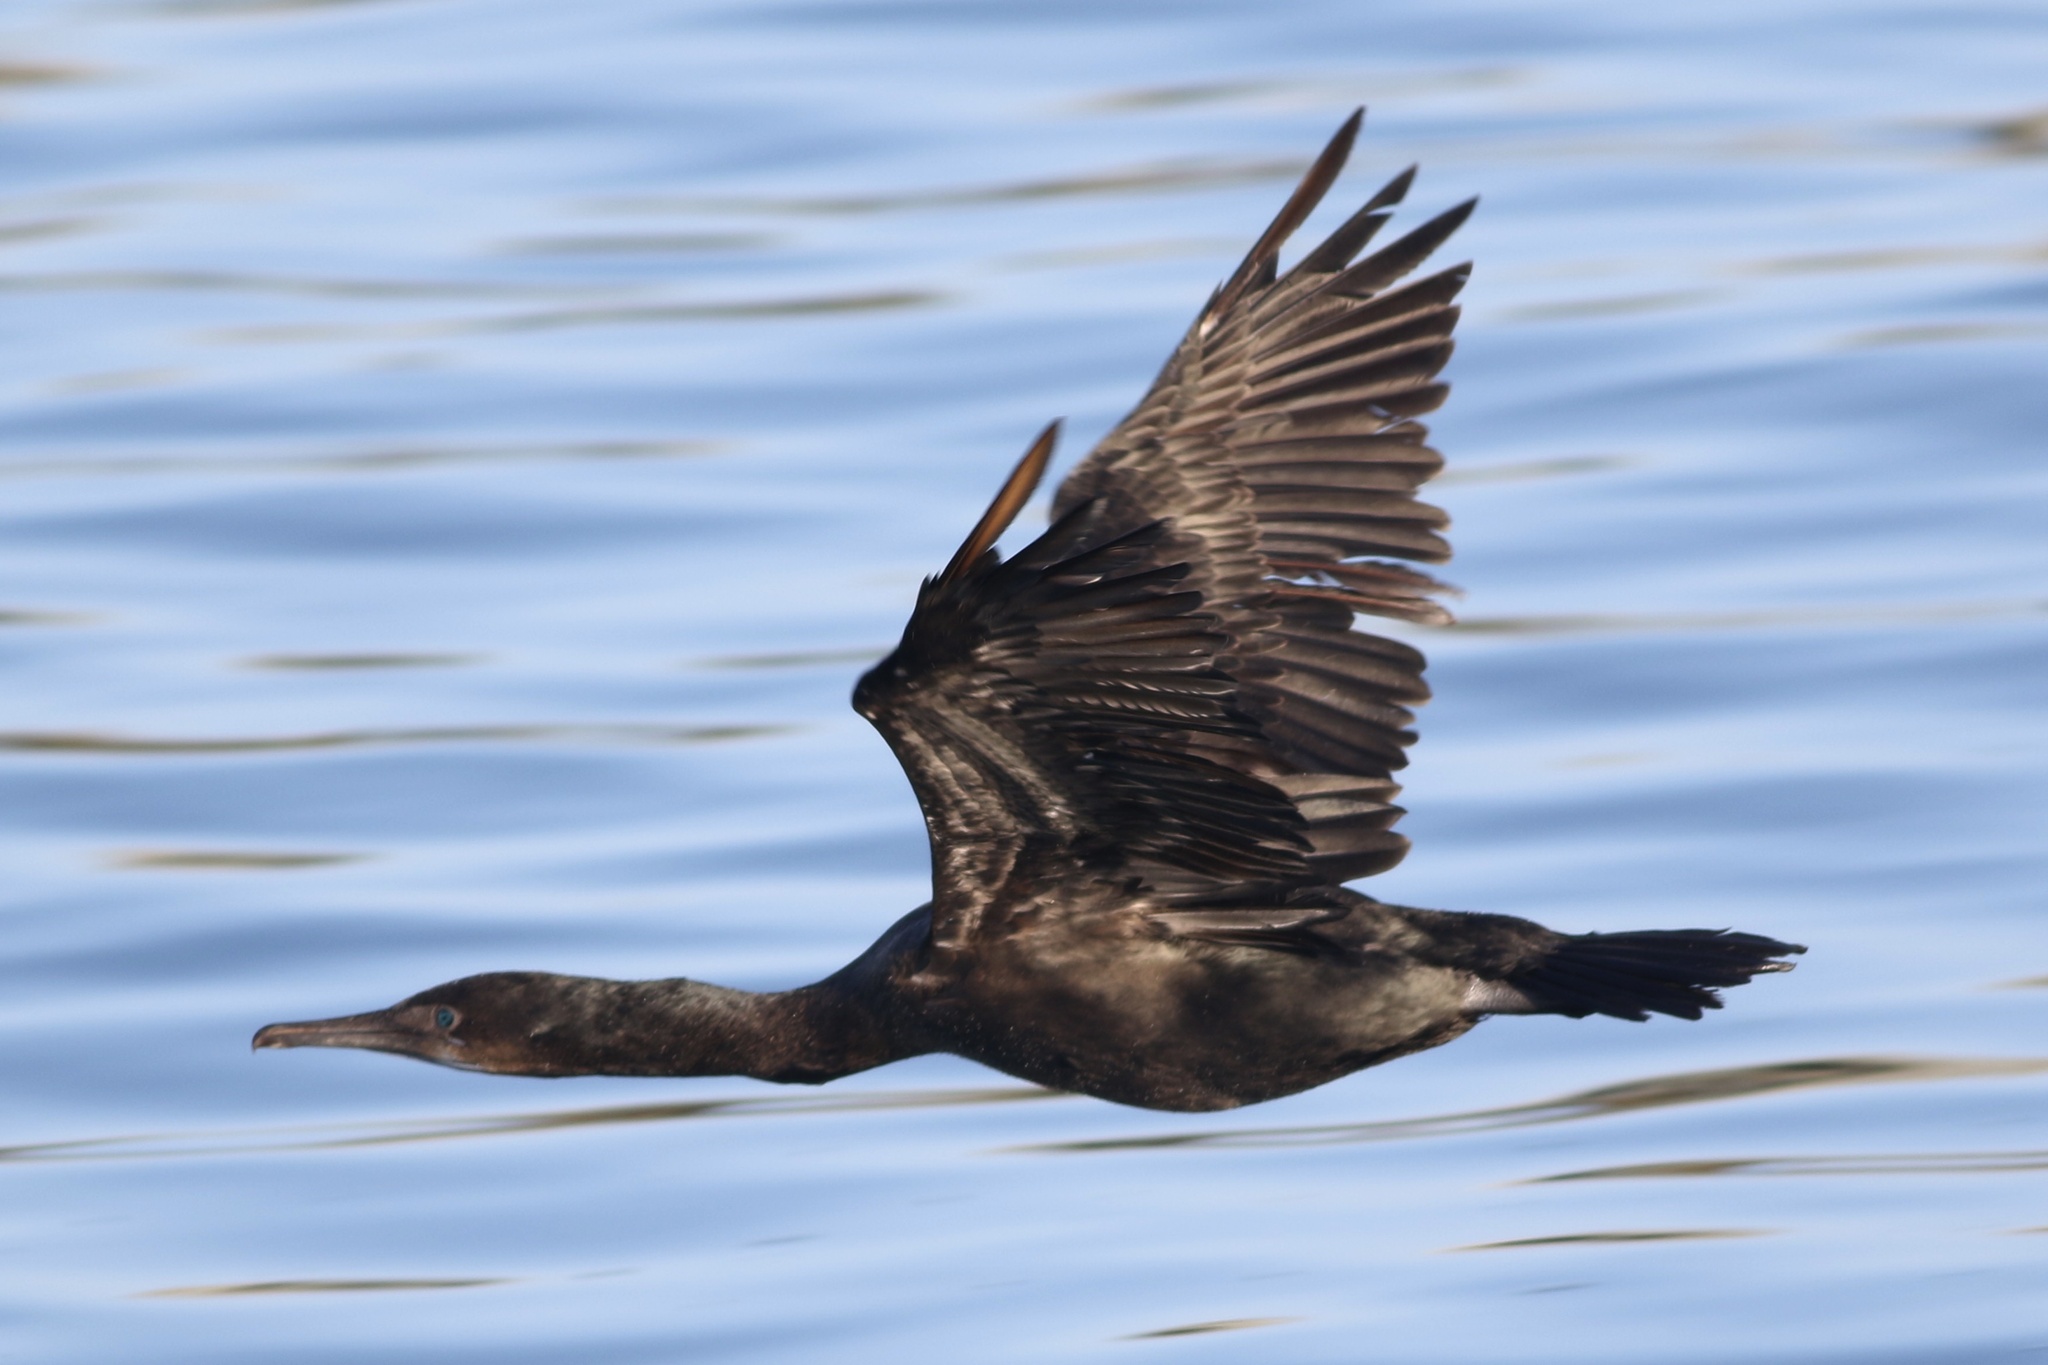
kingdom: Animalia
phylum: Chordata
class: Aves
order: Suliformes
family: Phalacrocoracidae
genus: Urile
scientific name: Urile penicillatus
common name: Brandt's cormorant
